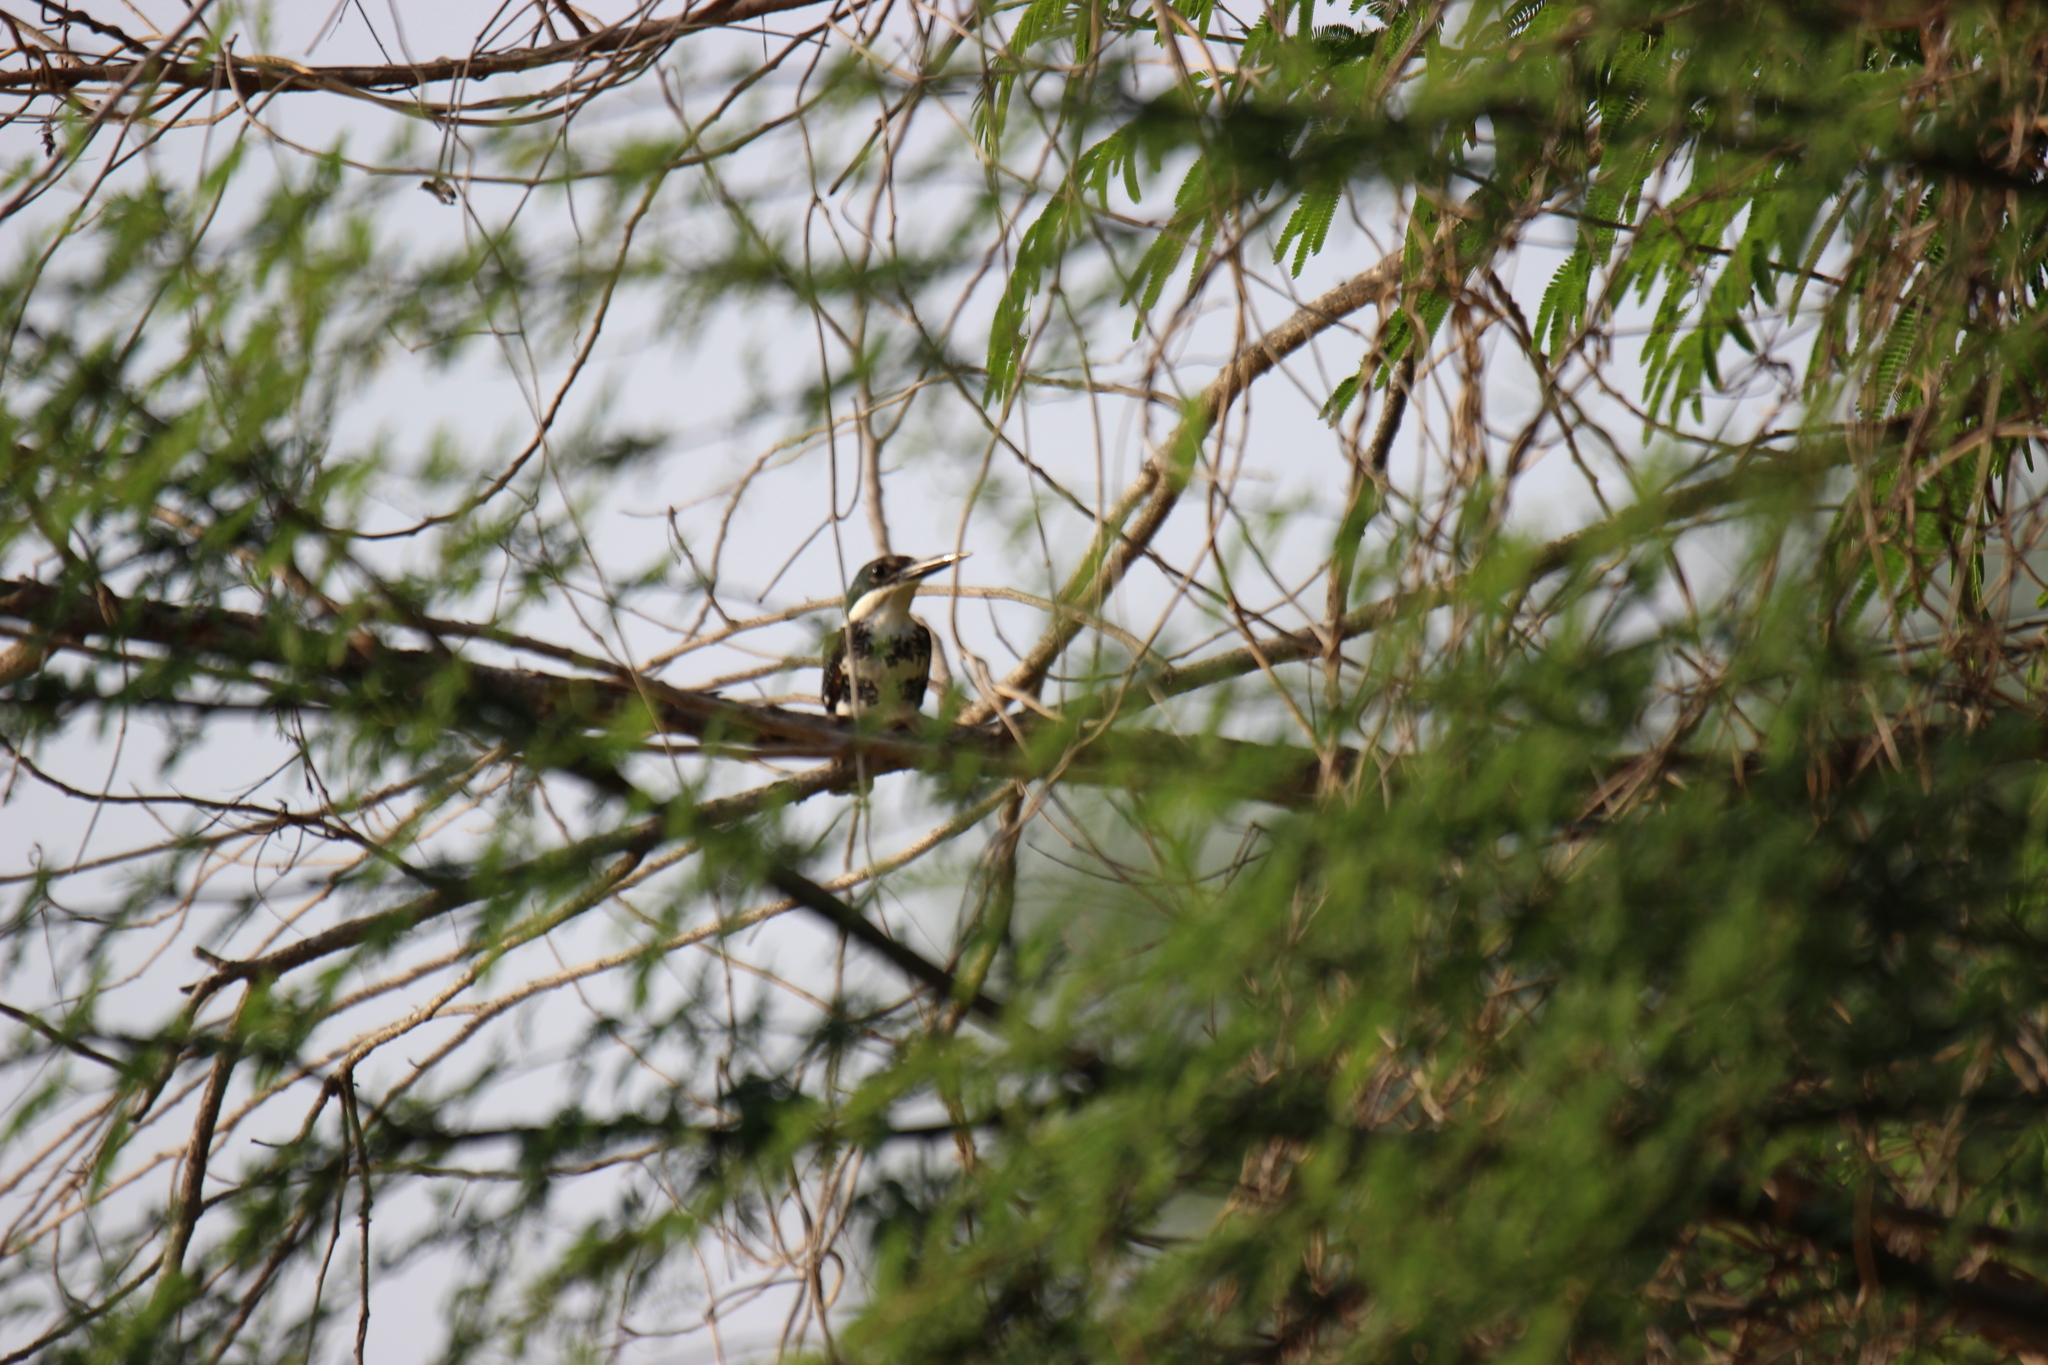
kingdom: Animalia
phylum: Chordata
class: Aves
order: Coraciiformes
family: Alcedinidae
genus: Chloroceryle
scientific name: Chloroceryle americana
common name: Green kingfisher
